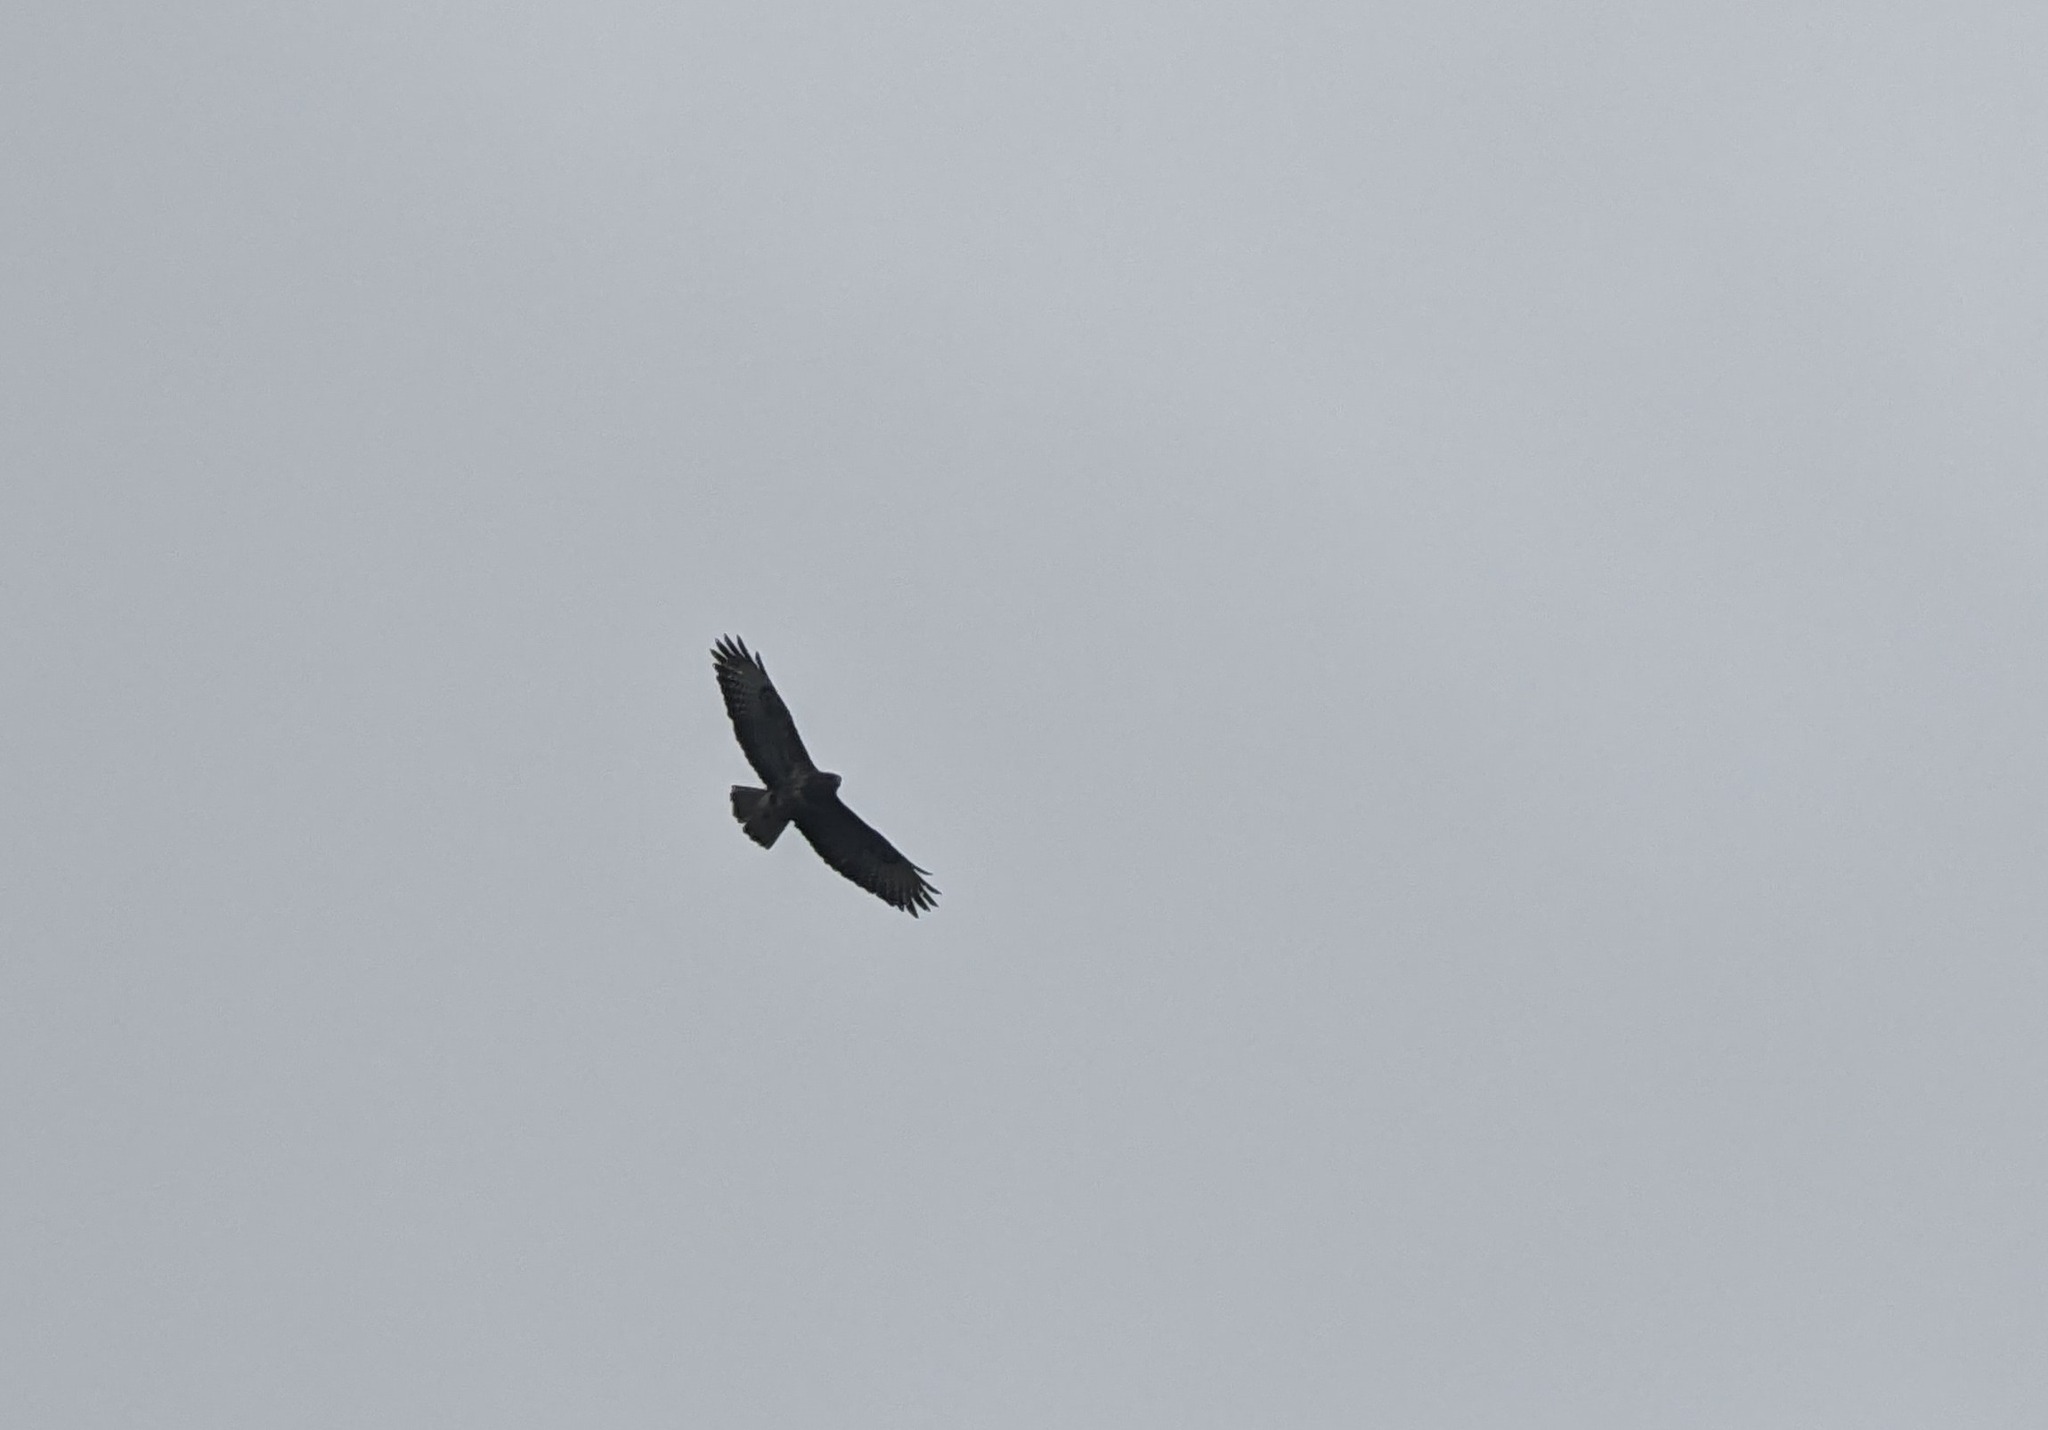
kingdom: Animalia
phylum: Chordata
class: Aves
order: Accipitriformes
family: Accipitridae
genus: Buteo
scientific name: Buteo buteo
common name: Common buzzard
